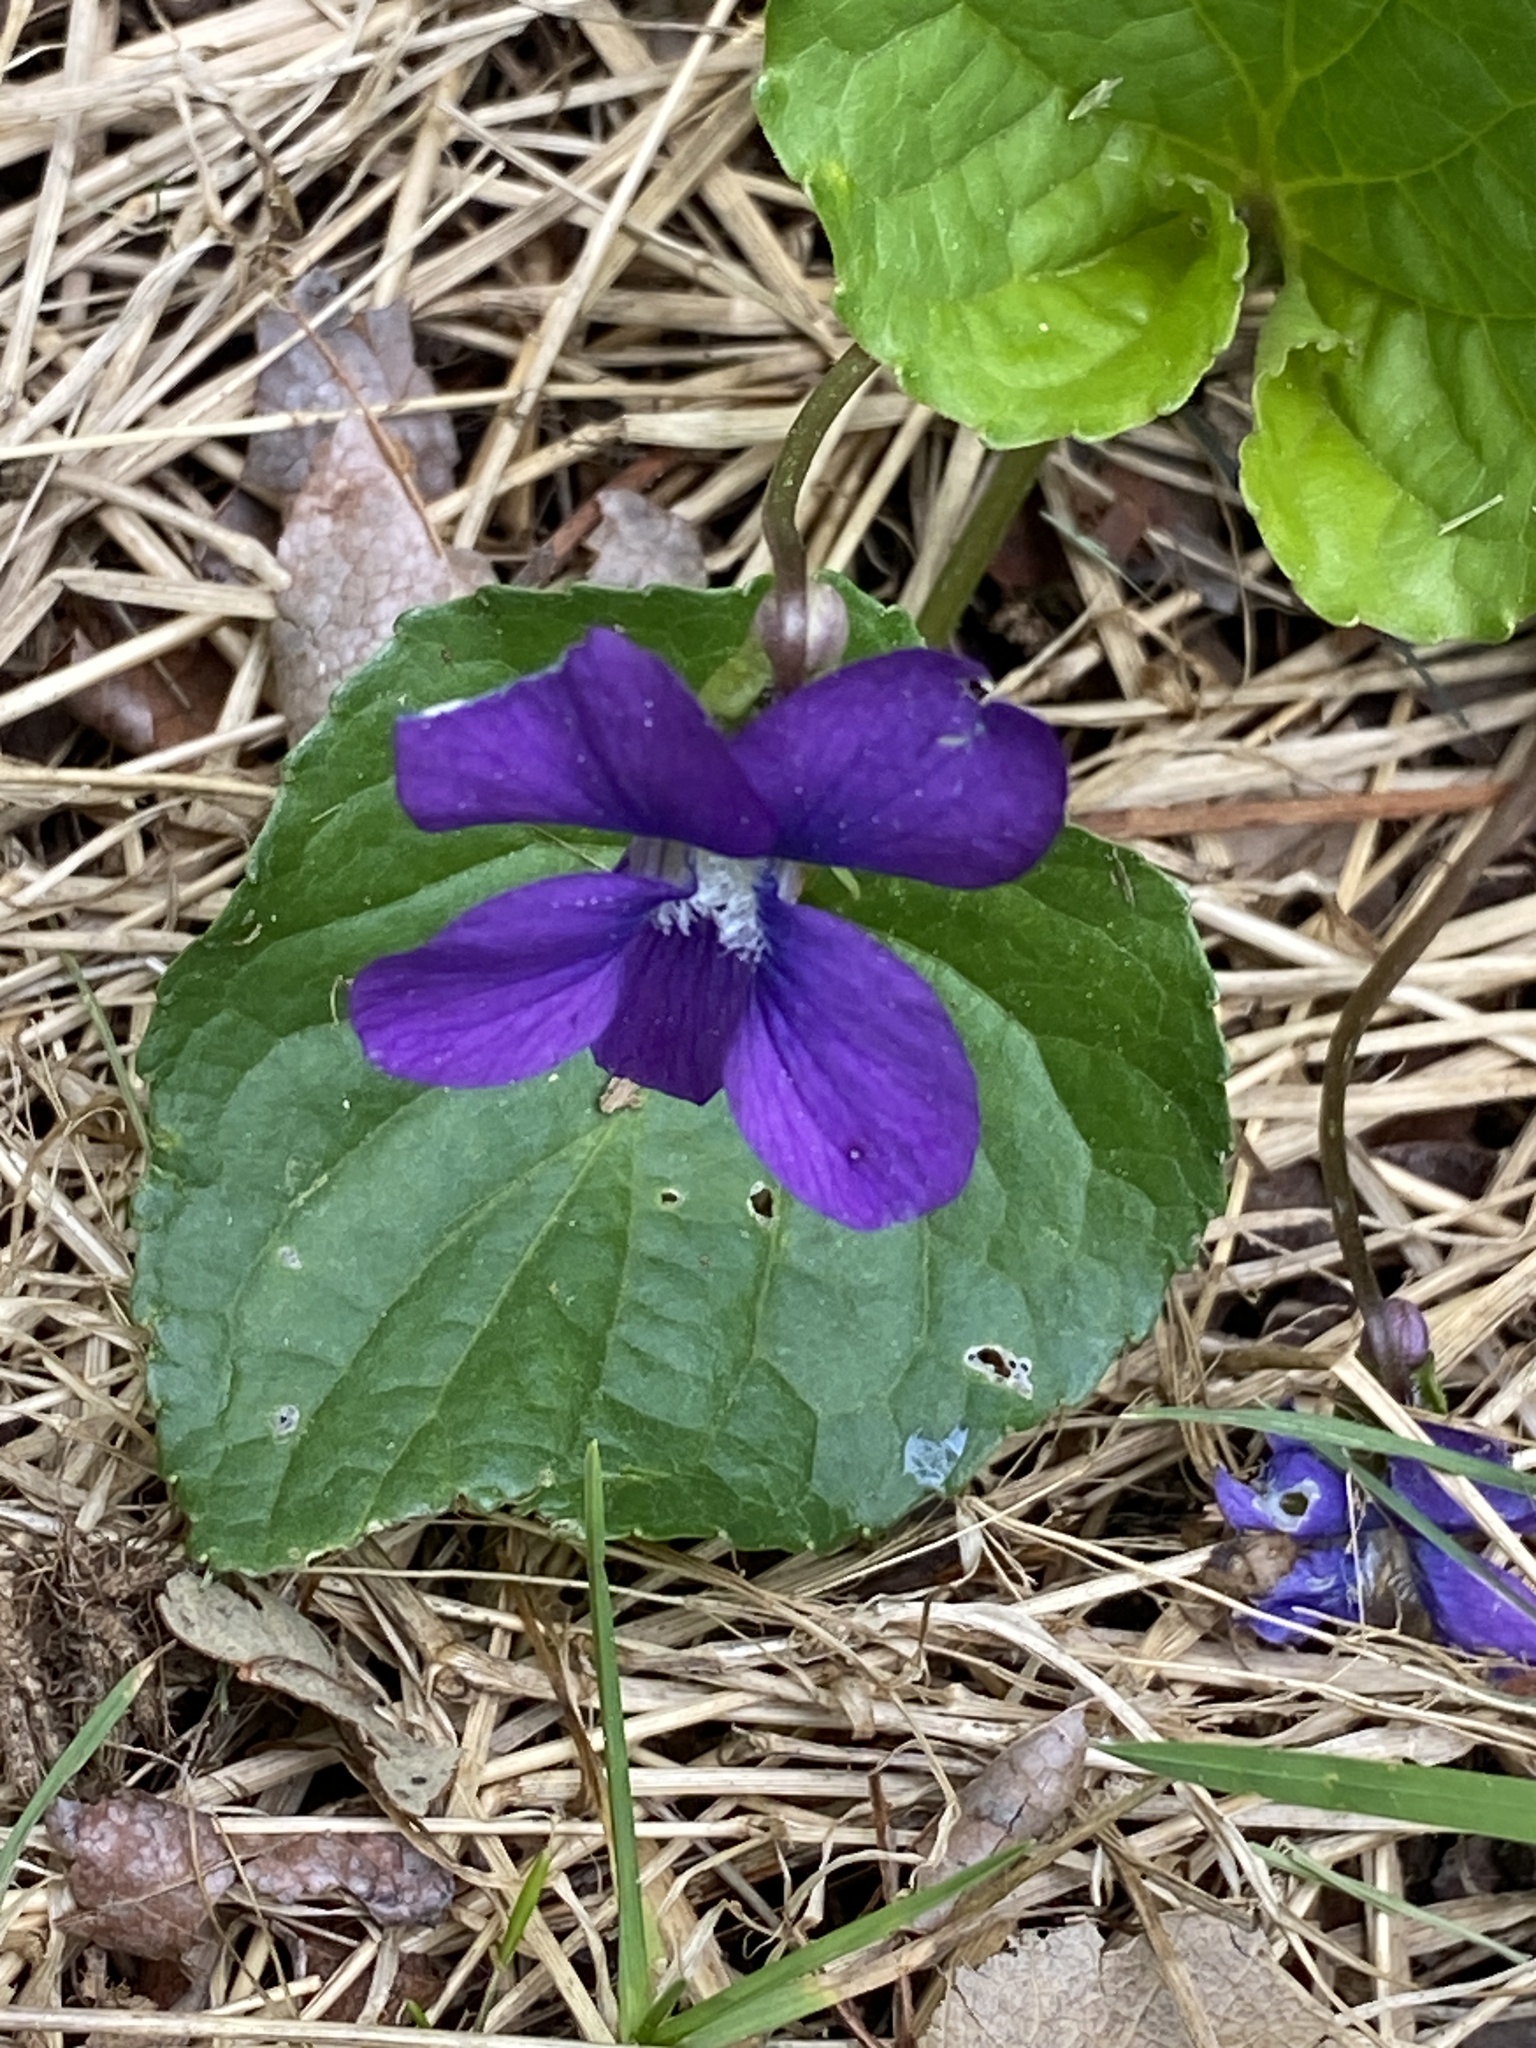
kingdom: Plantae
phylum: Tracheophyta
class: Magnoliopsida
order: Malpighiales
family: Violaceae
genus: Viola
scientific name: Viola sororia
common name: Dooryard violet
